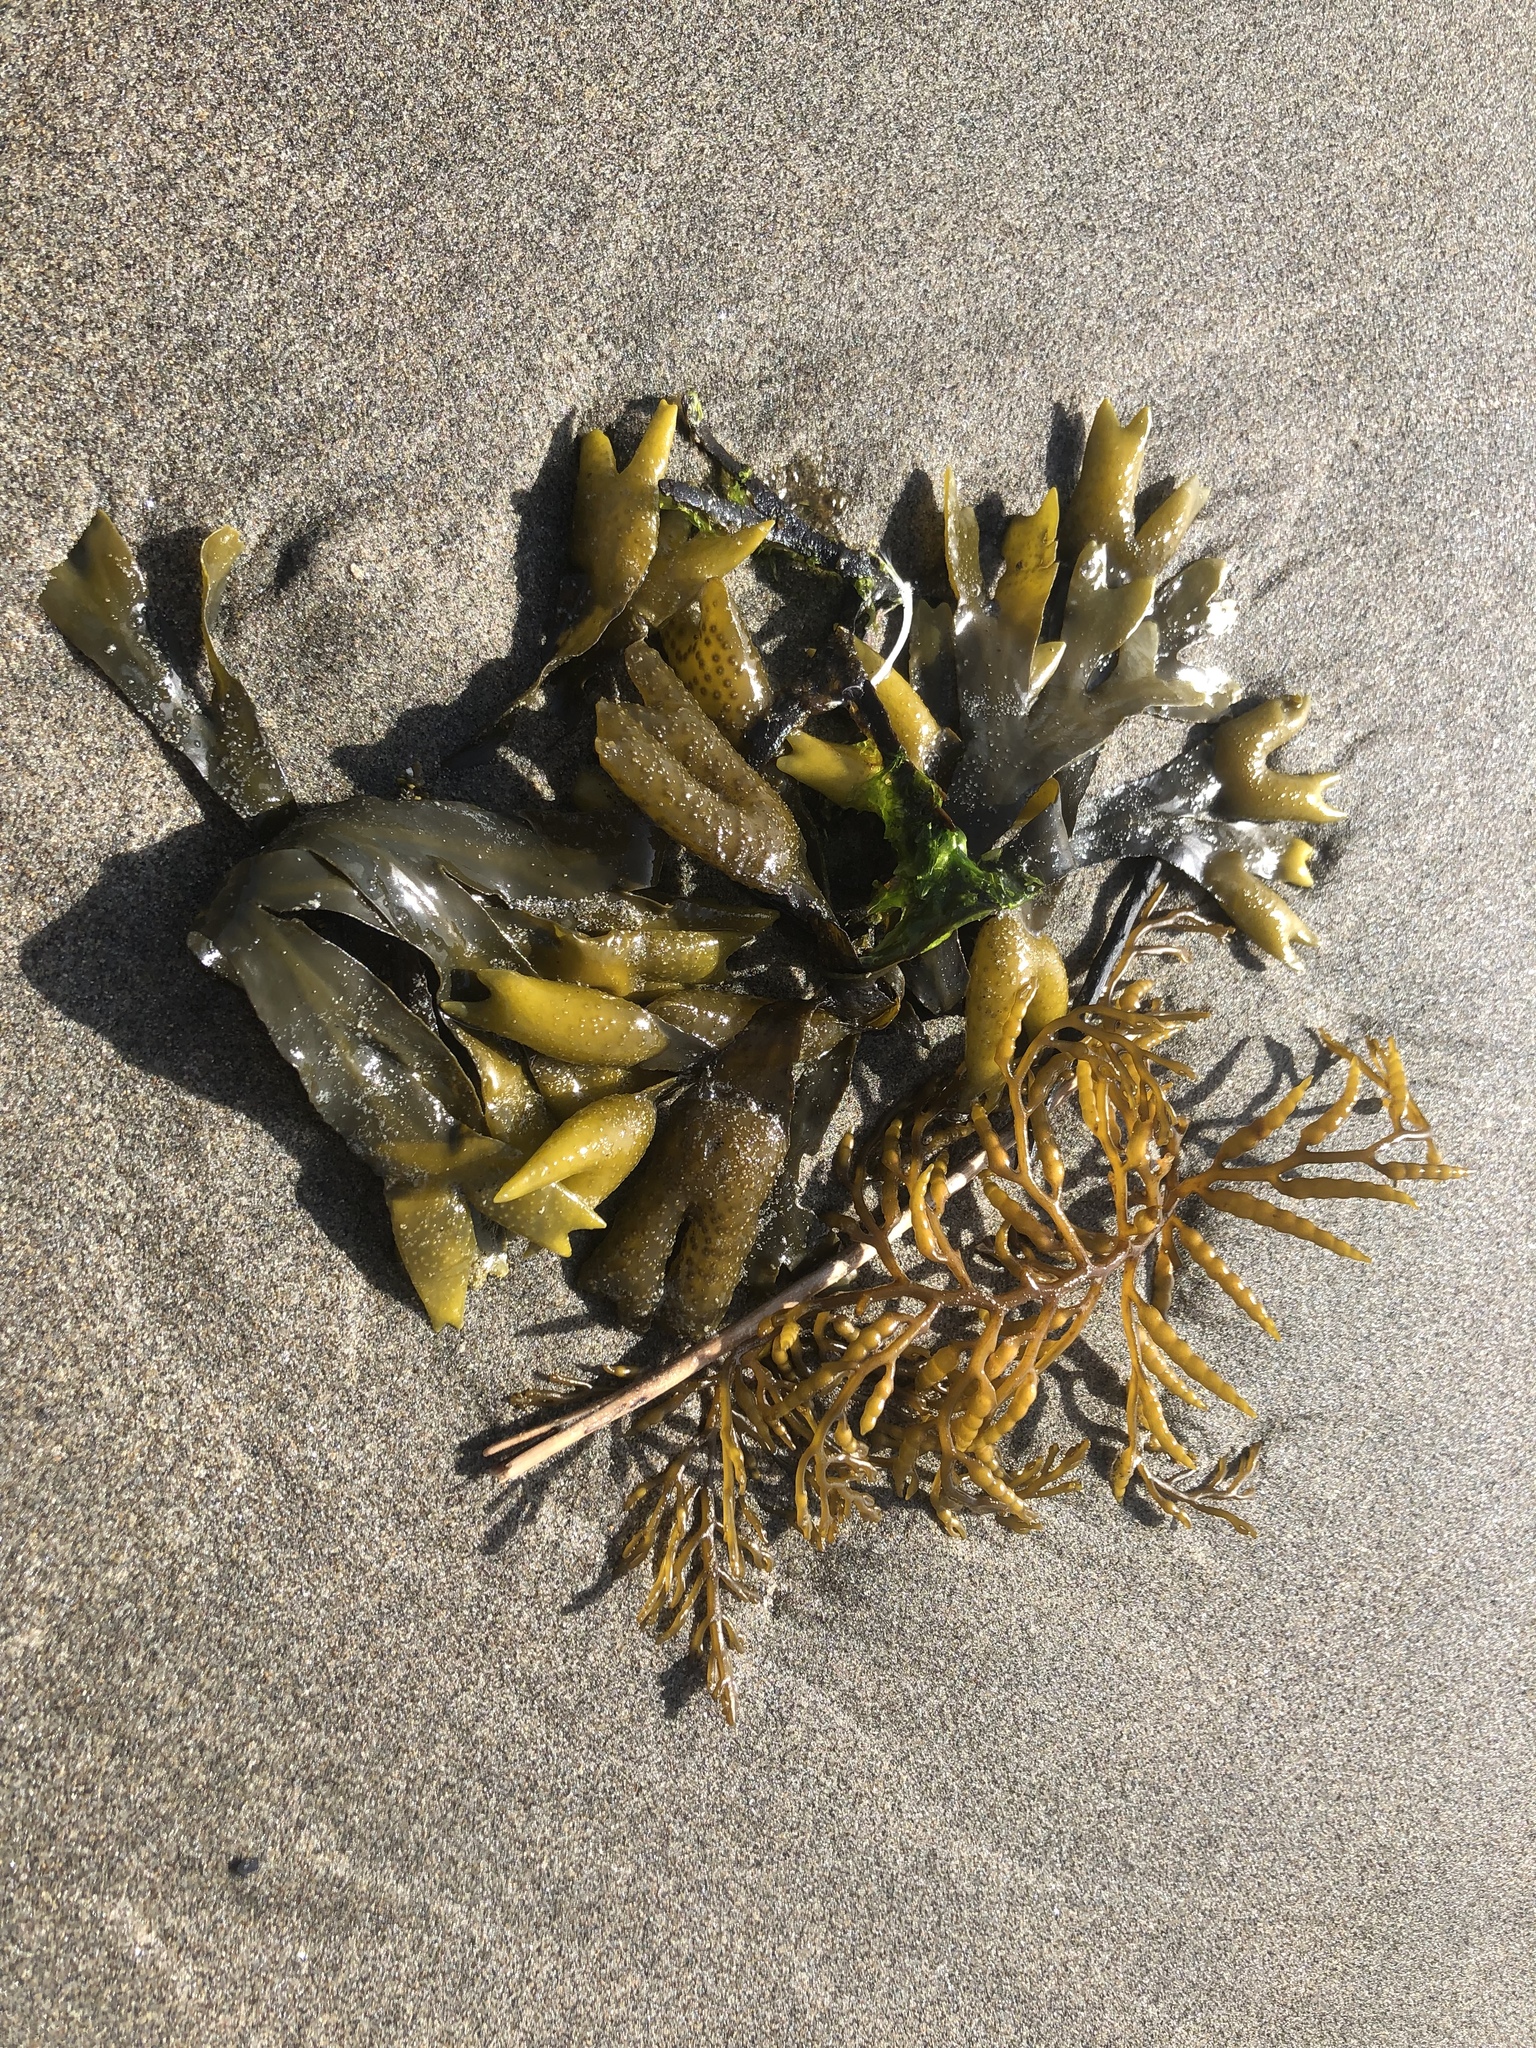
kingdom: Chromista
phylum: Ochrophyta
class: Phaeophyceae
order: Fucales
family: Fucaceae
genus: Fucus
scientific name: Fucus distichus
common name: Rockweed
